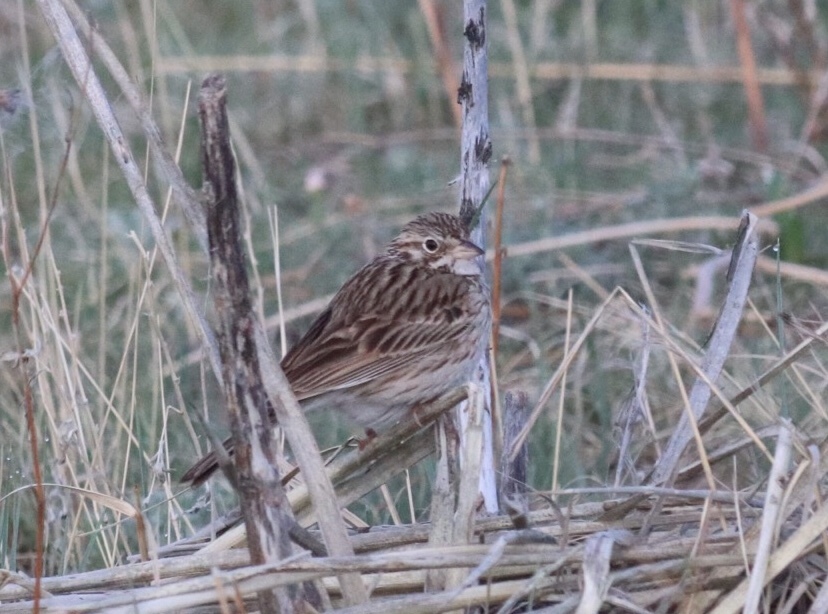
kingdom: Animalia
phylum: Chordata
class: Aves
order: Passeriformes
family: Passerellidae
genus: Pooecetes
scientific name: Pooecetes gramineus
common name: Vesper sparrow
